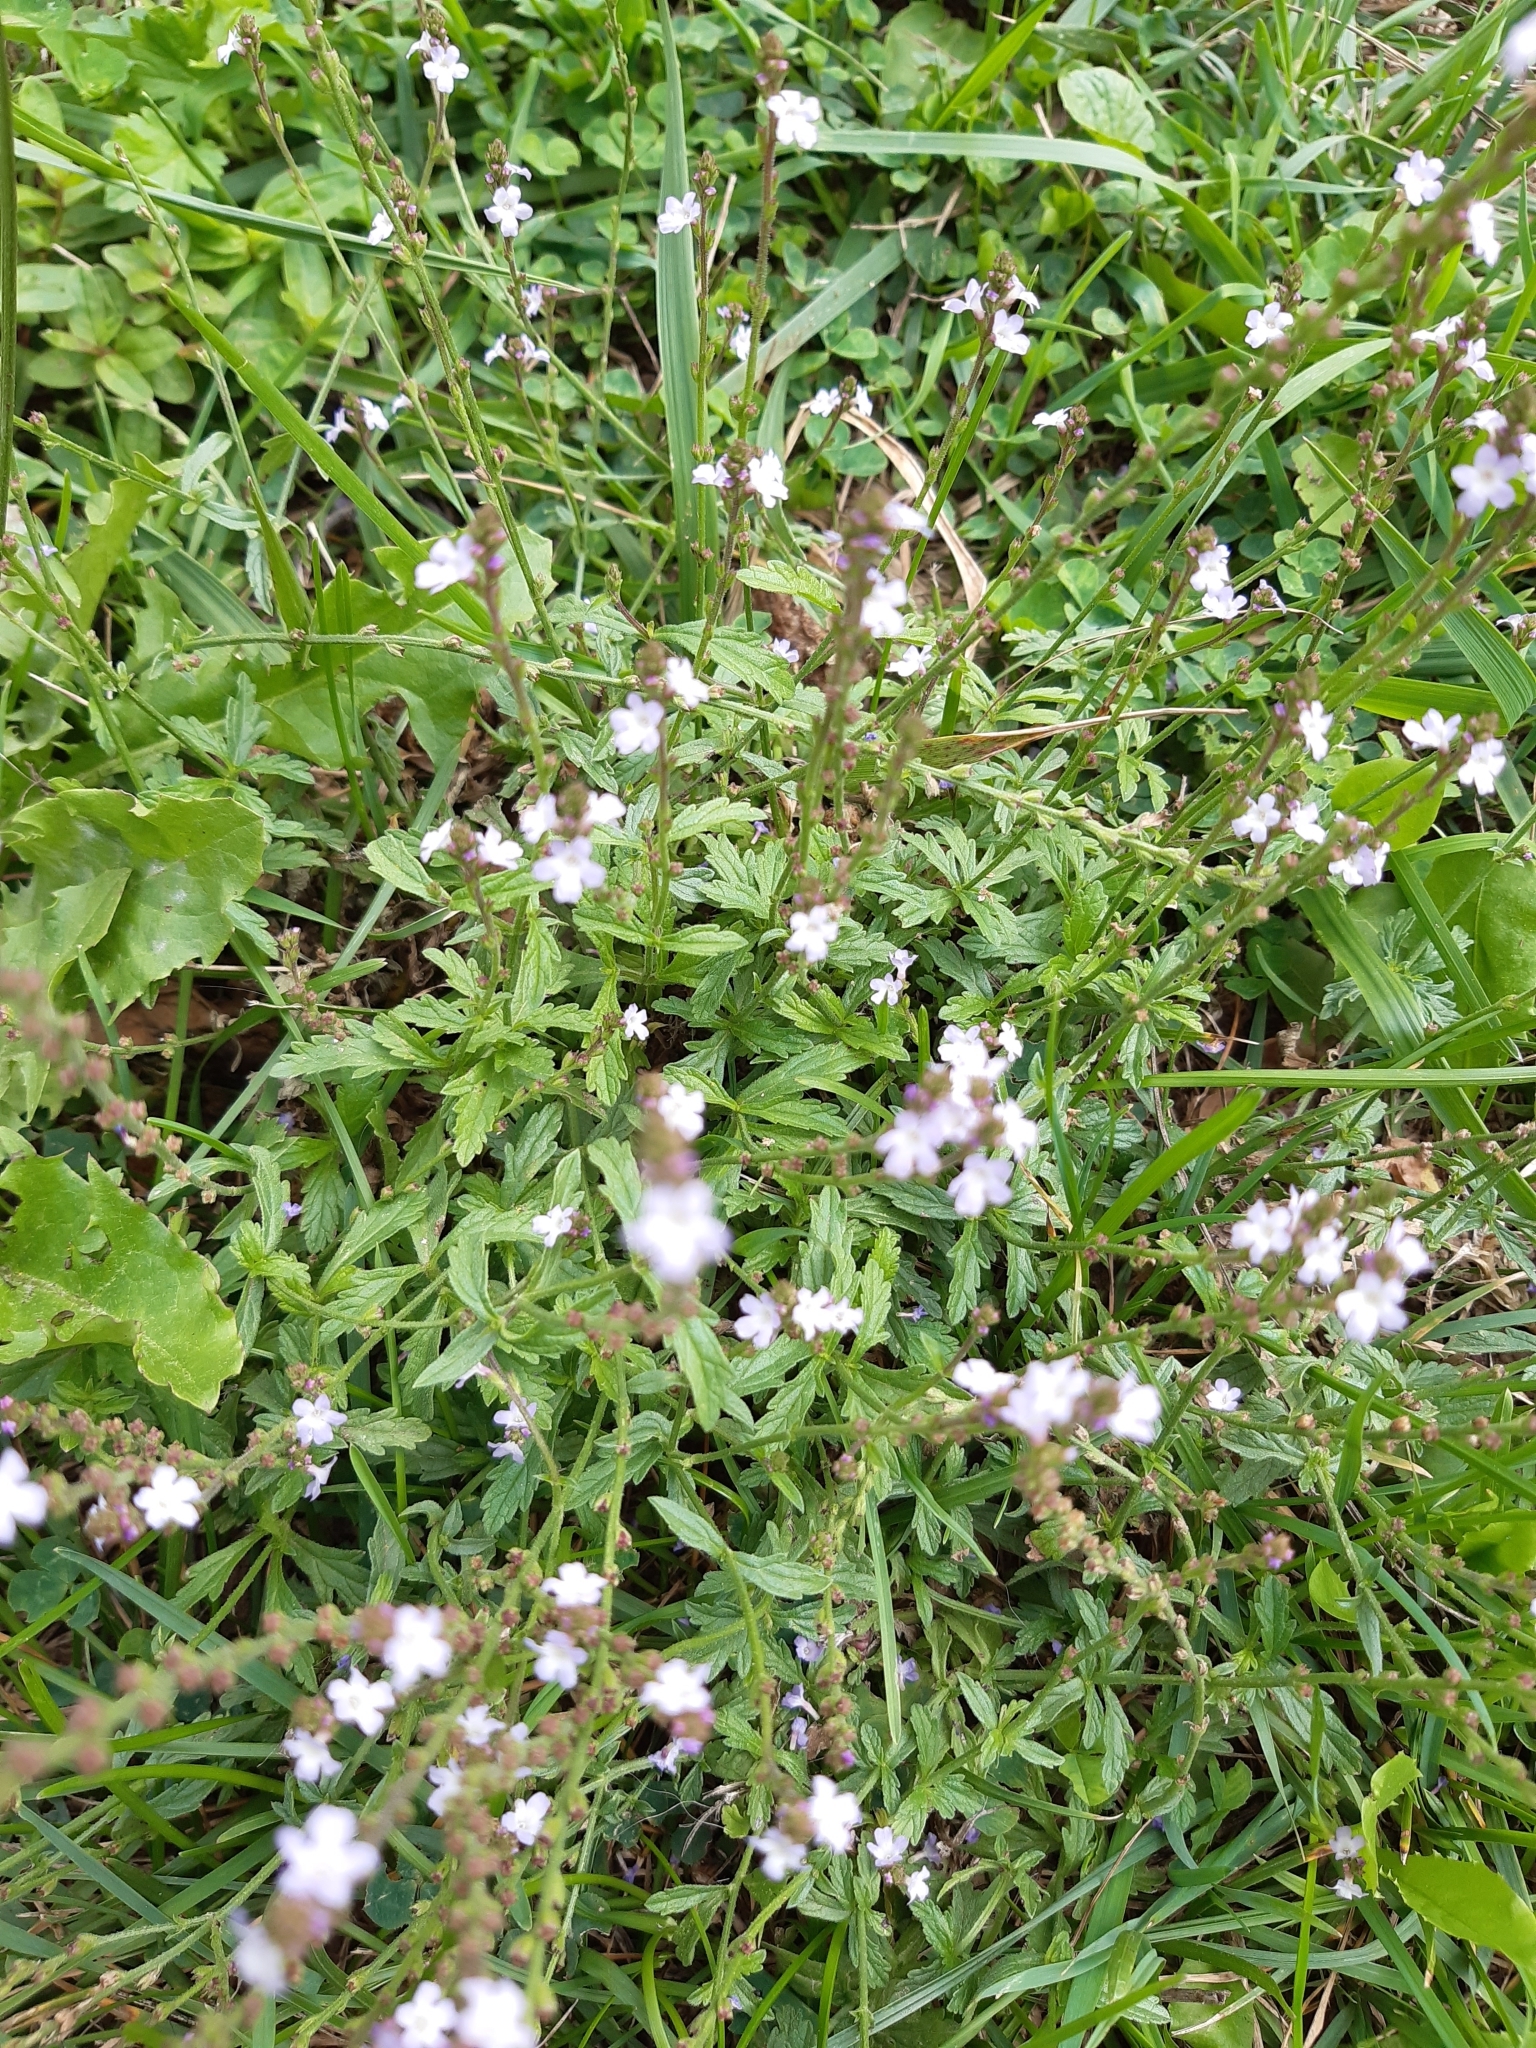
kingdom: Plantae
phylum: Tracheophyta
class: Magnoliopsida
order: Lamiales
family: Verbenaceae
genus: Verbena
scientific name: Verbena officinalis
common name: Vervain
